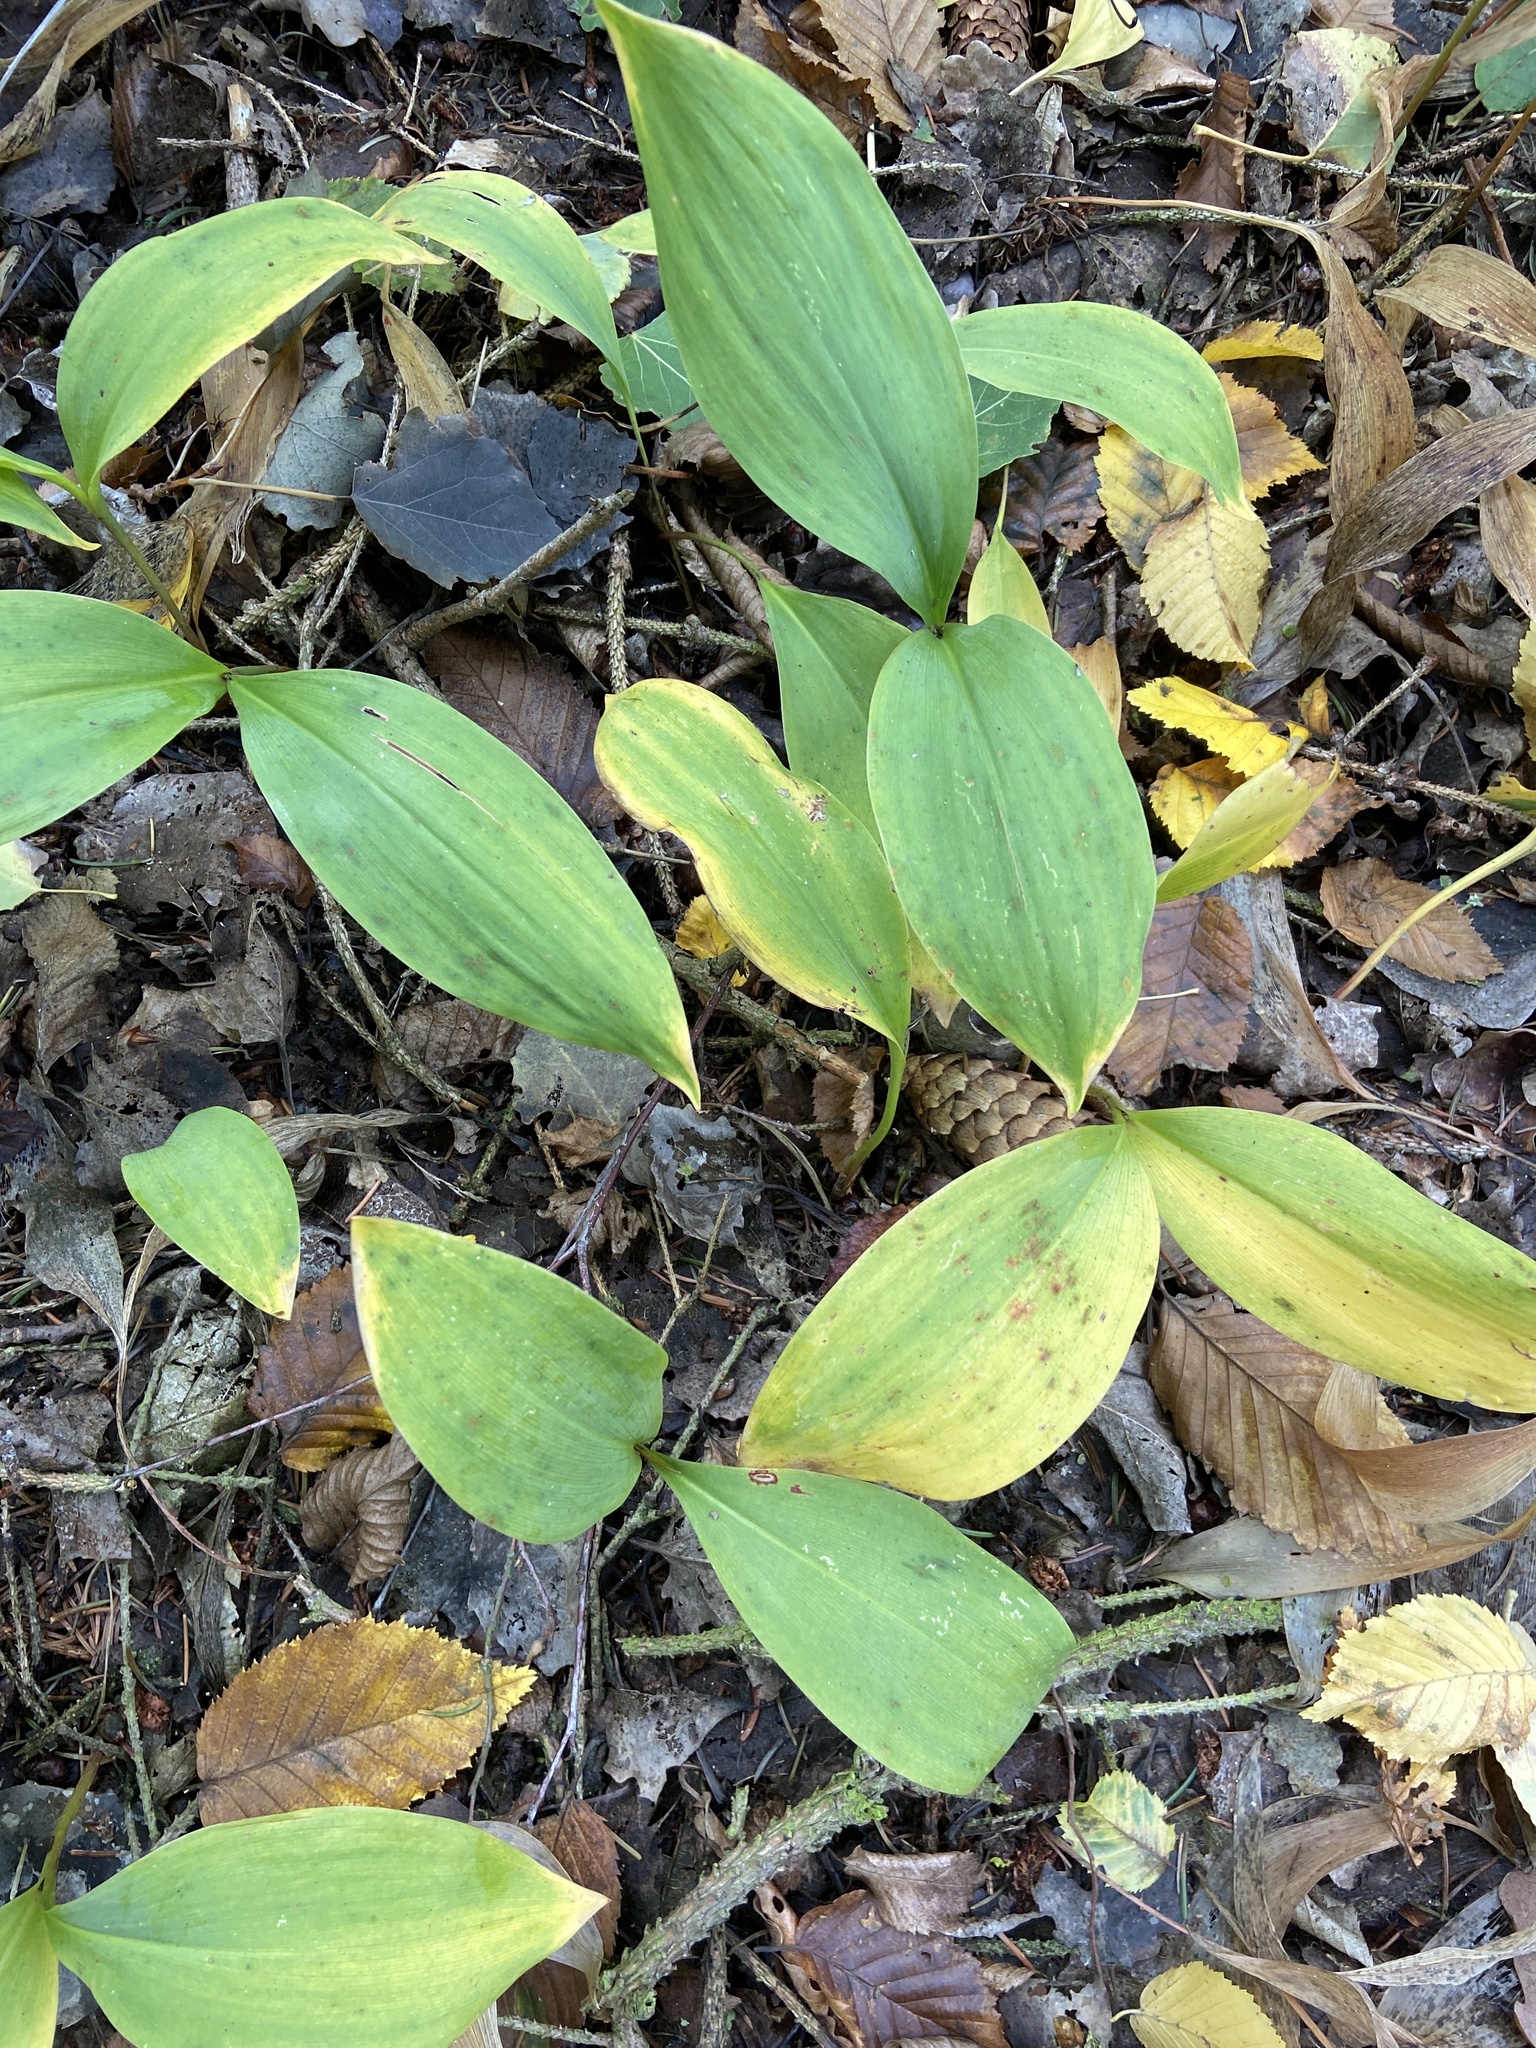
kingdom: Plantae
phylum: Tracheophyta
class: Liliopsida
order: Asparagales
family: Asparagaceae
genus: Convallaria
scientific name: Convallaria majalis
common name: Lily-of-the-valley
